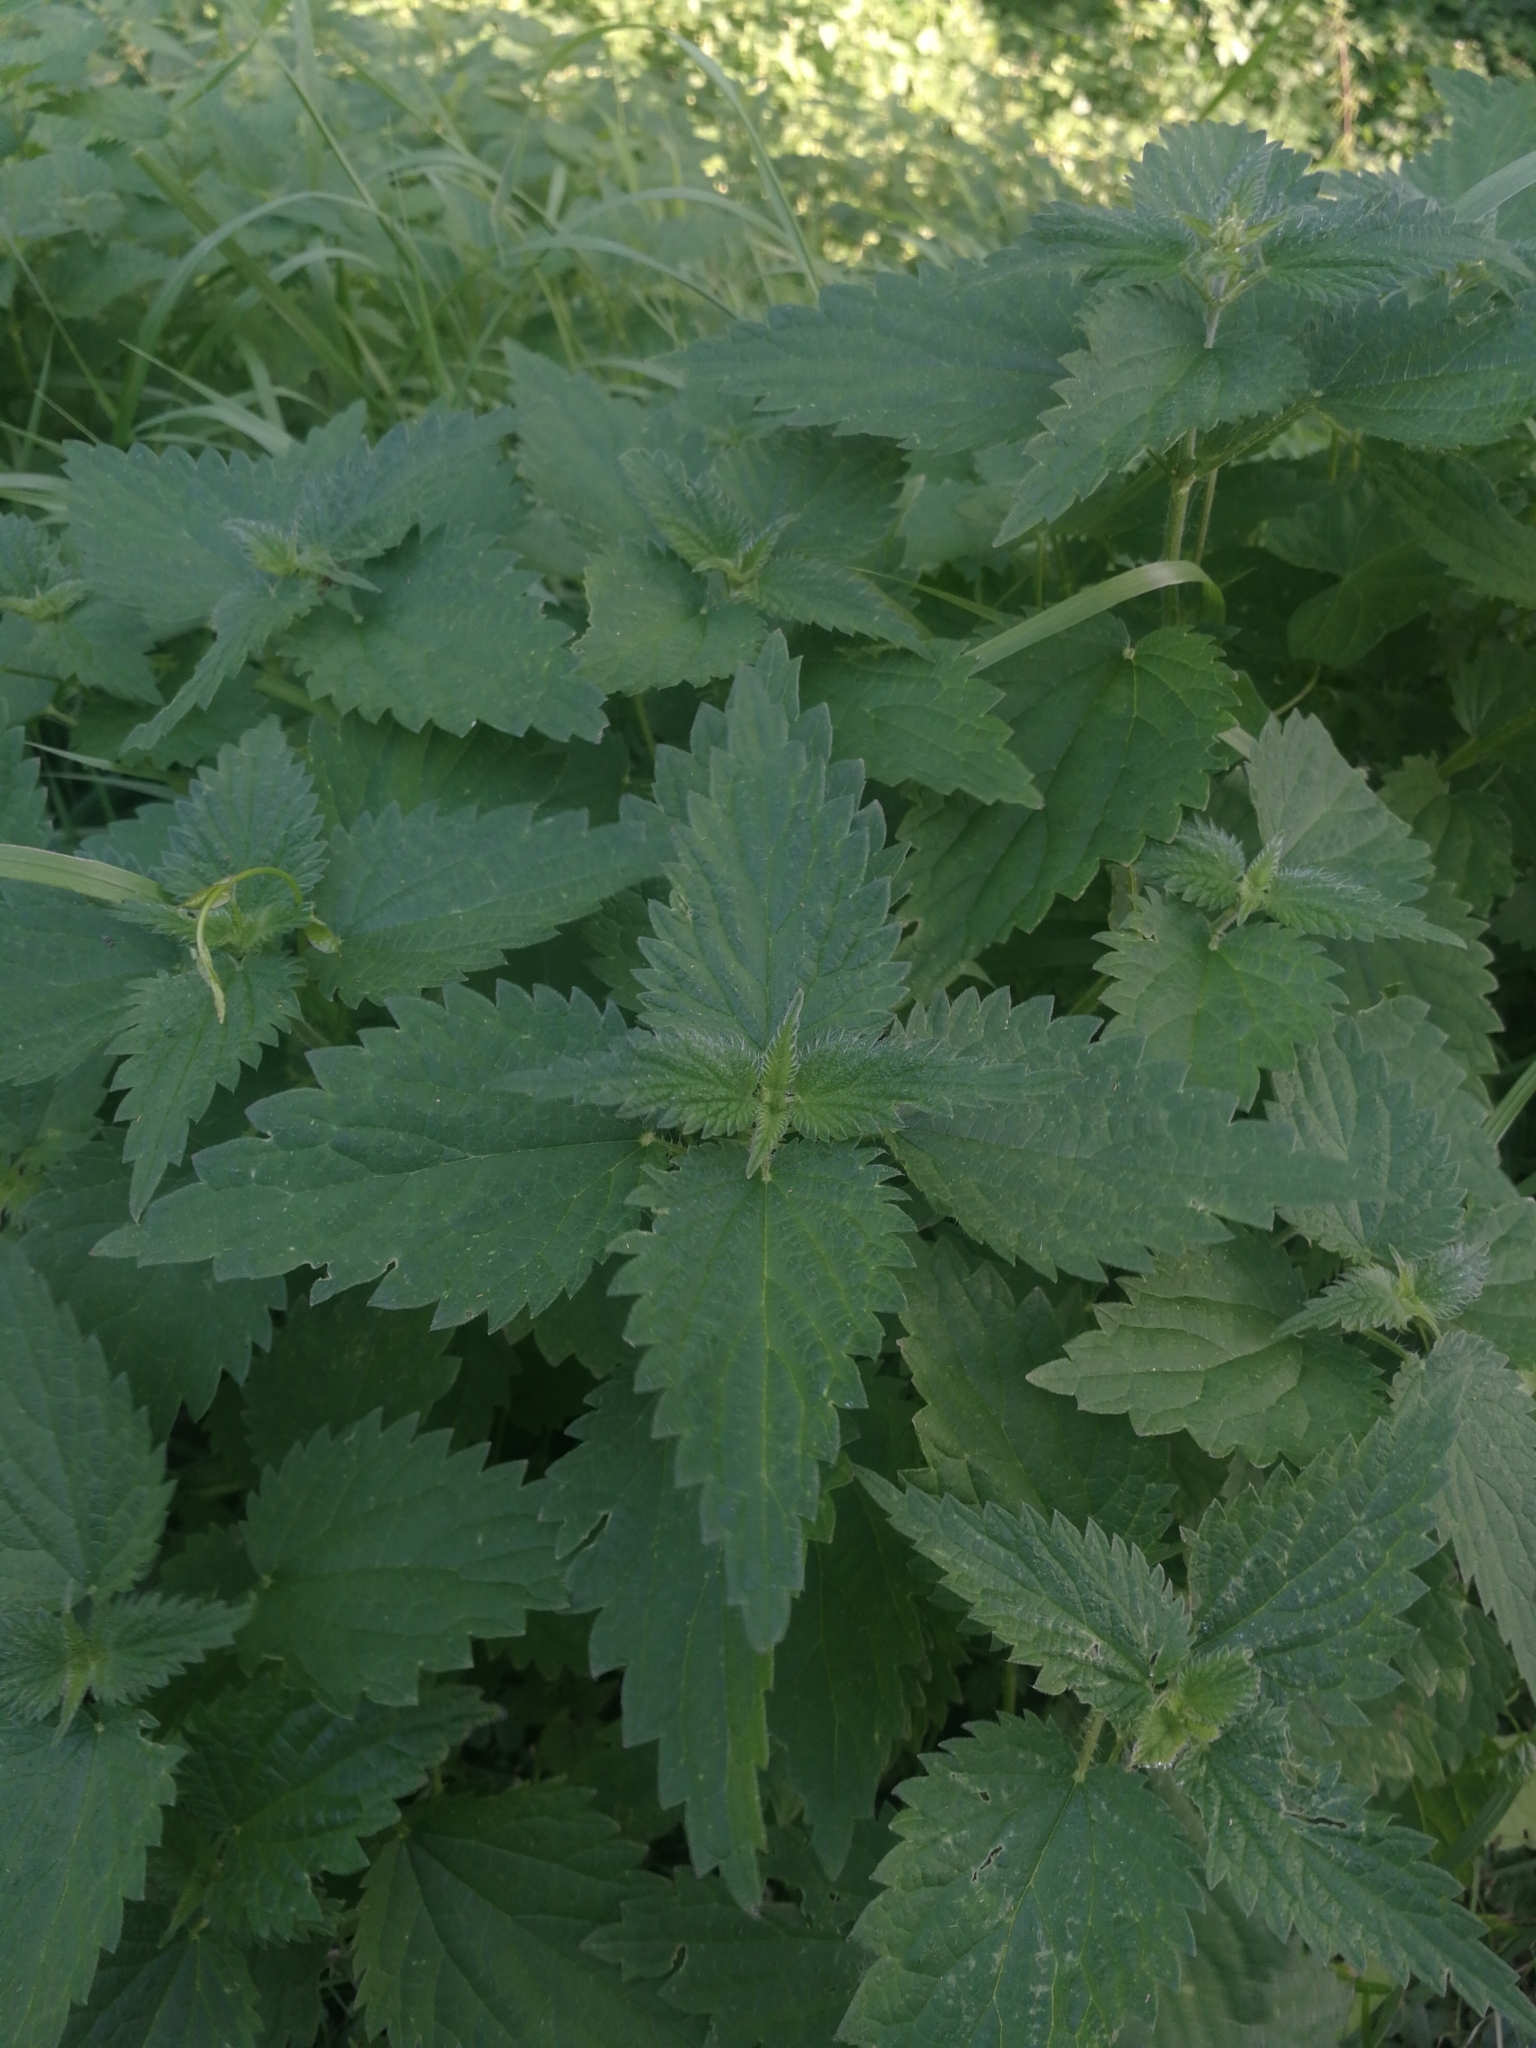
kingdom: Plantae
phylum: Tracheophyta
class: Magnoliopsida
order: Rosales
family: Urticaceae
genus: Urtica
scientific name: Urtica dioica
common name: Common nettle
